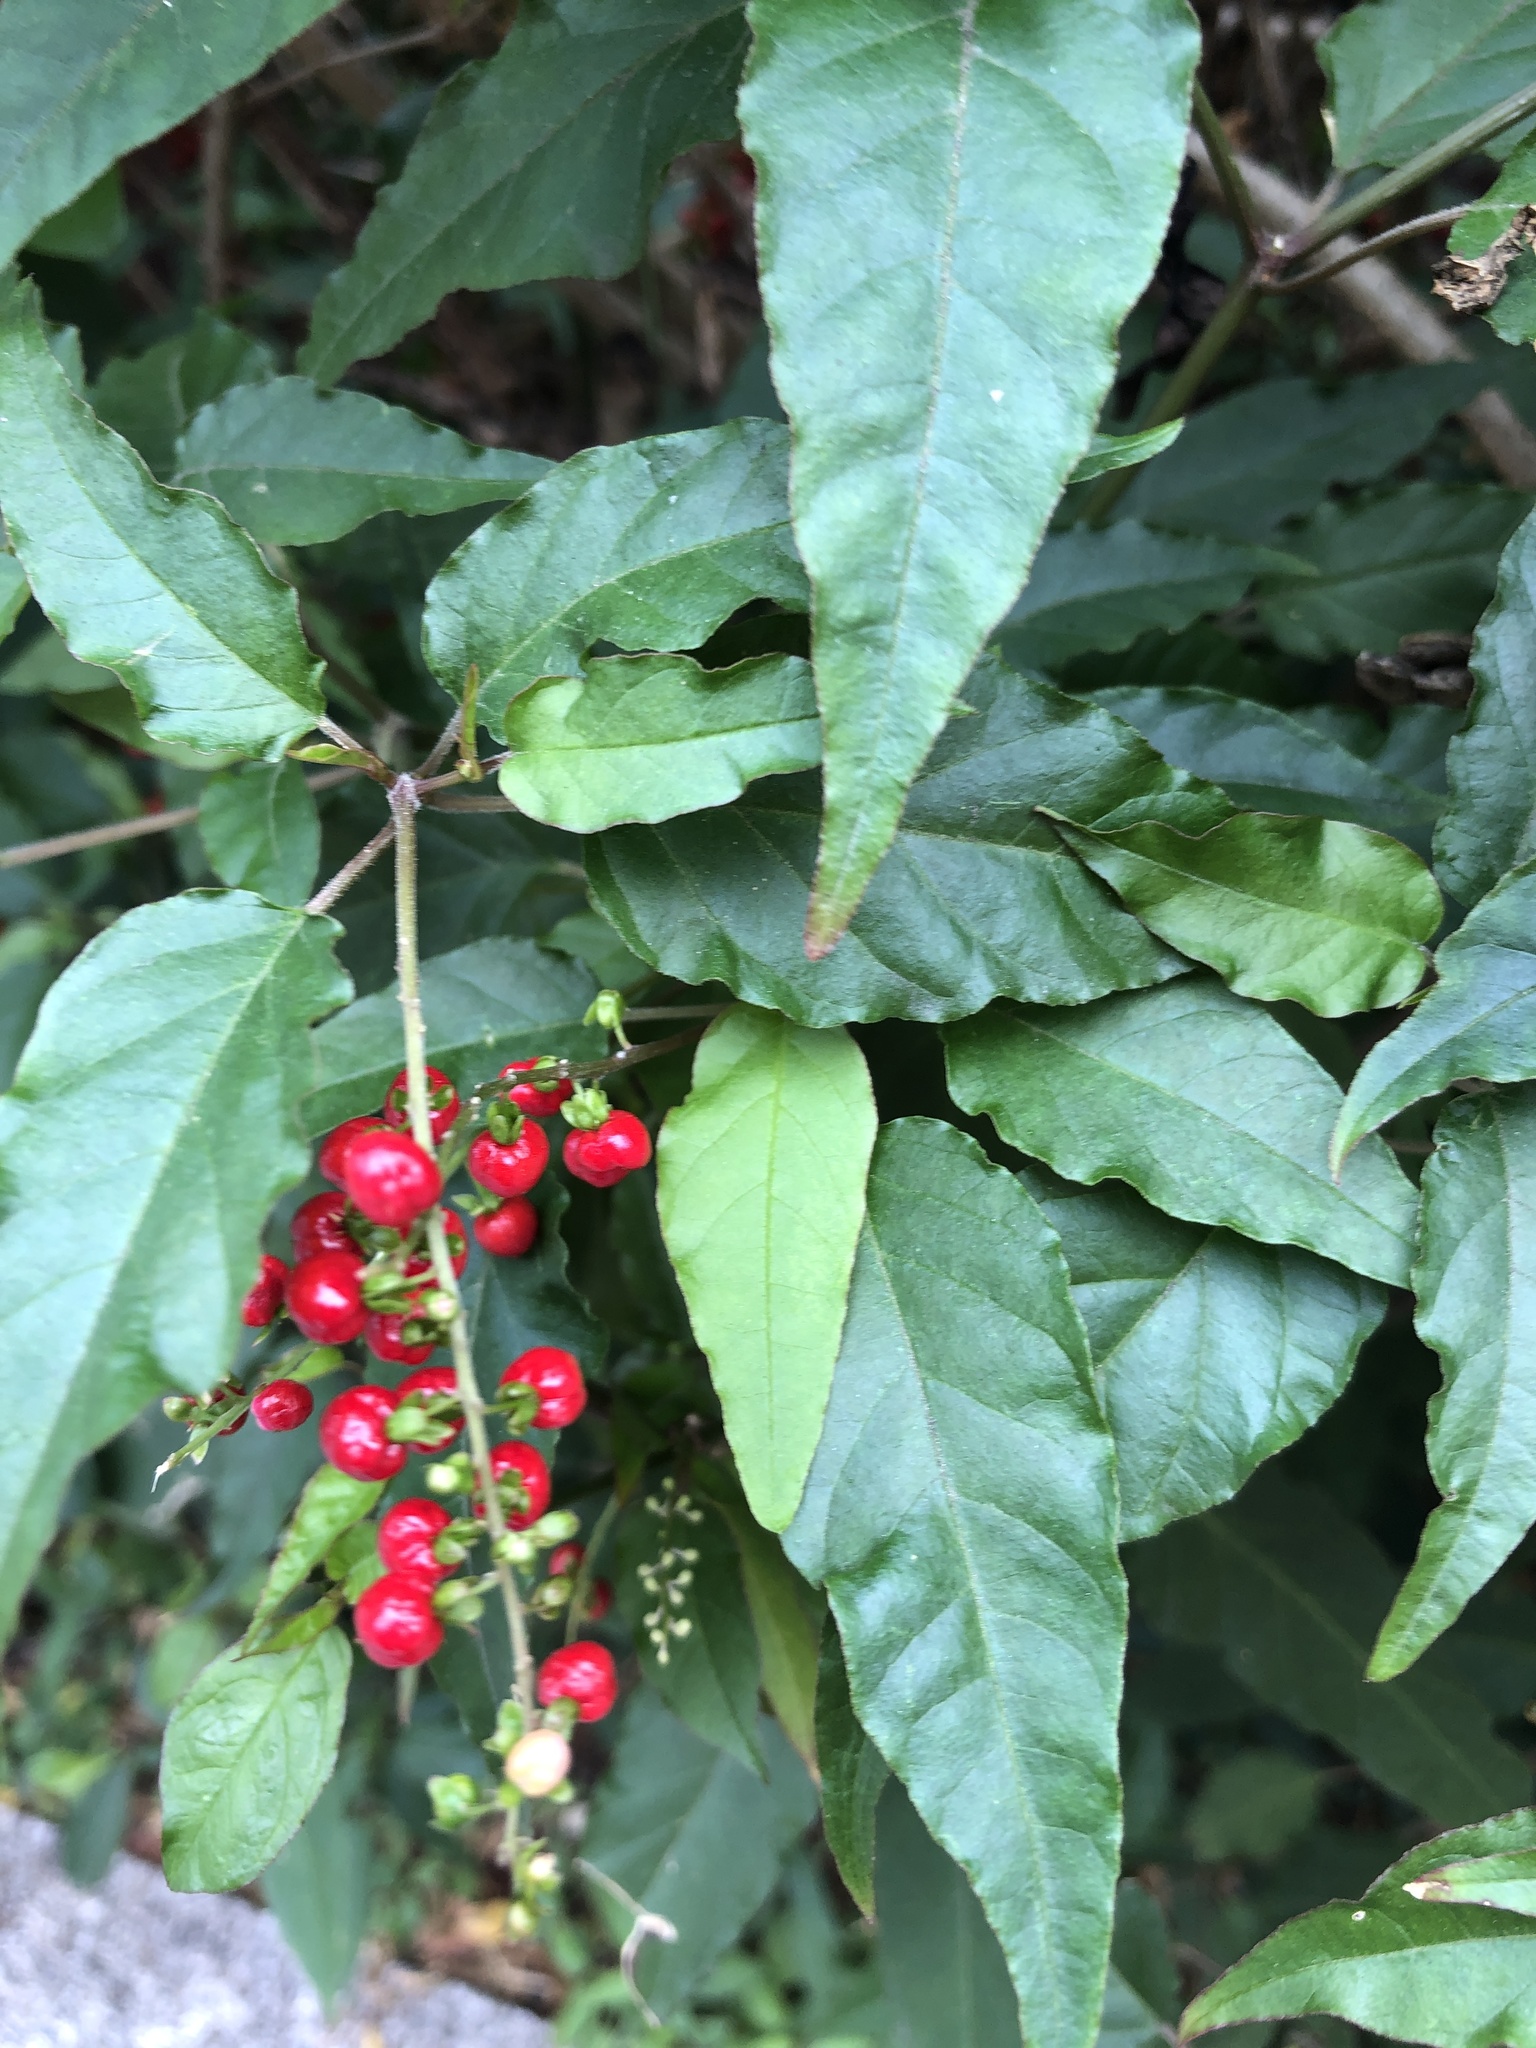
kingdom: Plantae
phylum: Tracheophyta
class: Magnoliopsida
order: Caryophyllales
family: Phytolaccaceae
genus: Rivina
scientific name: Rivina humilis
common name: Rougeplant
